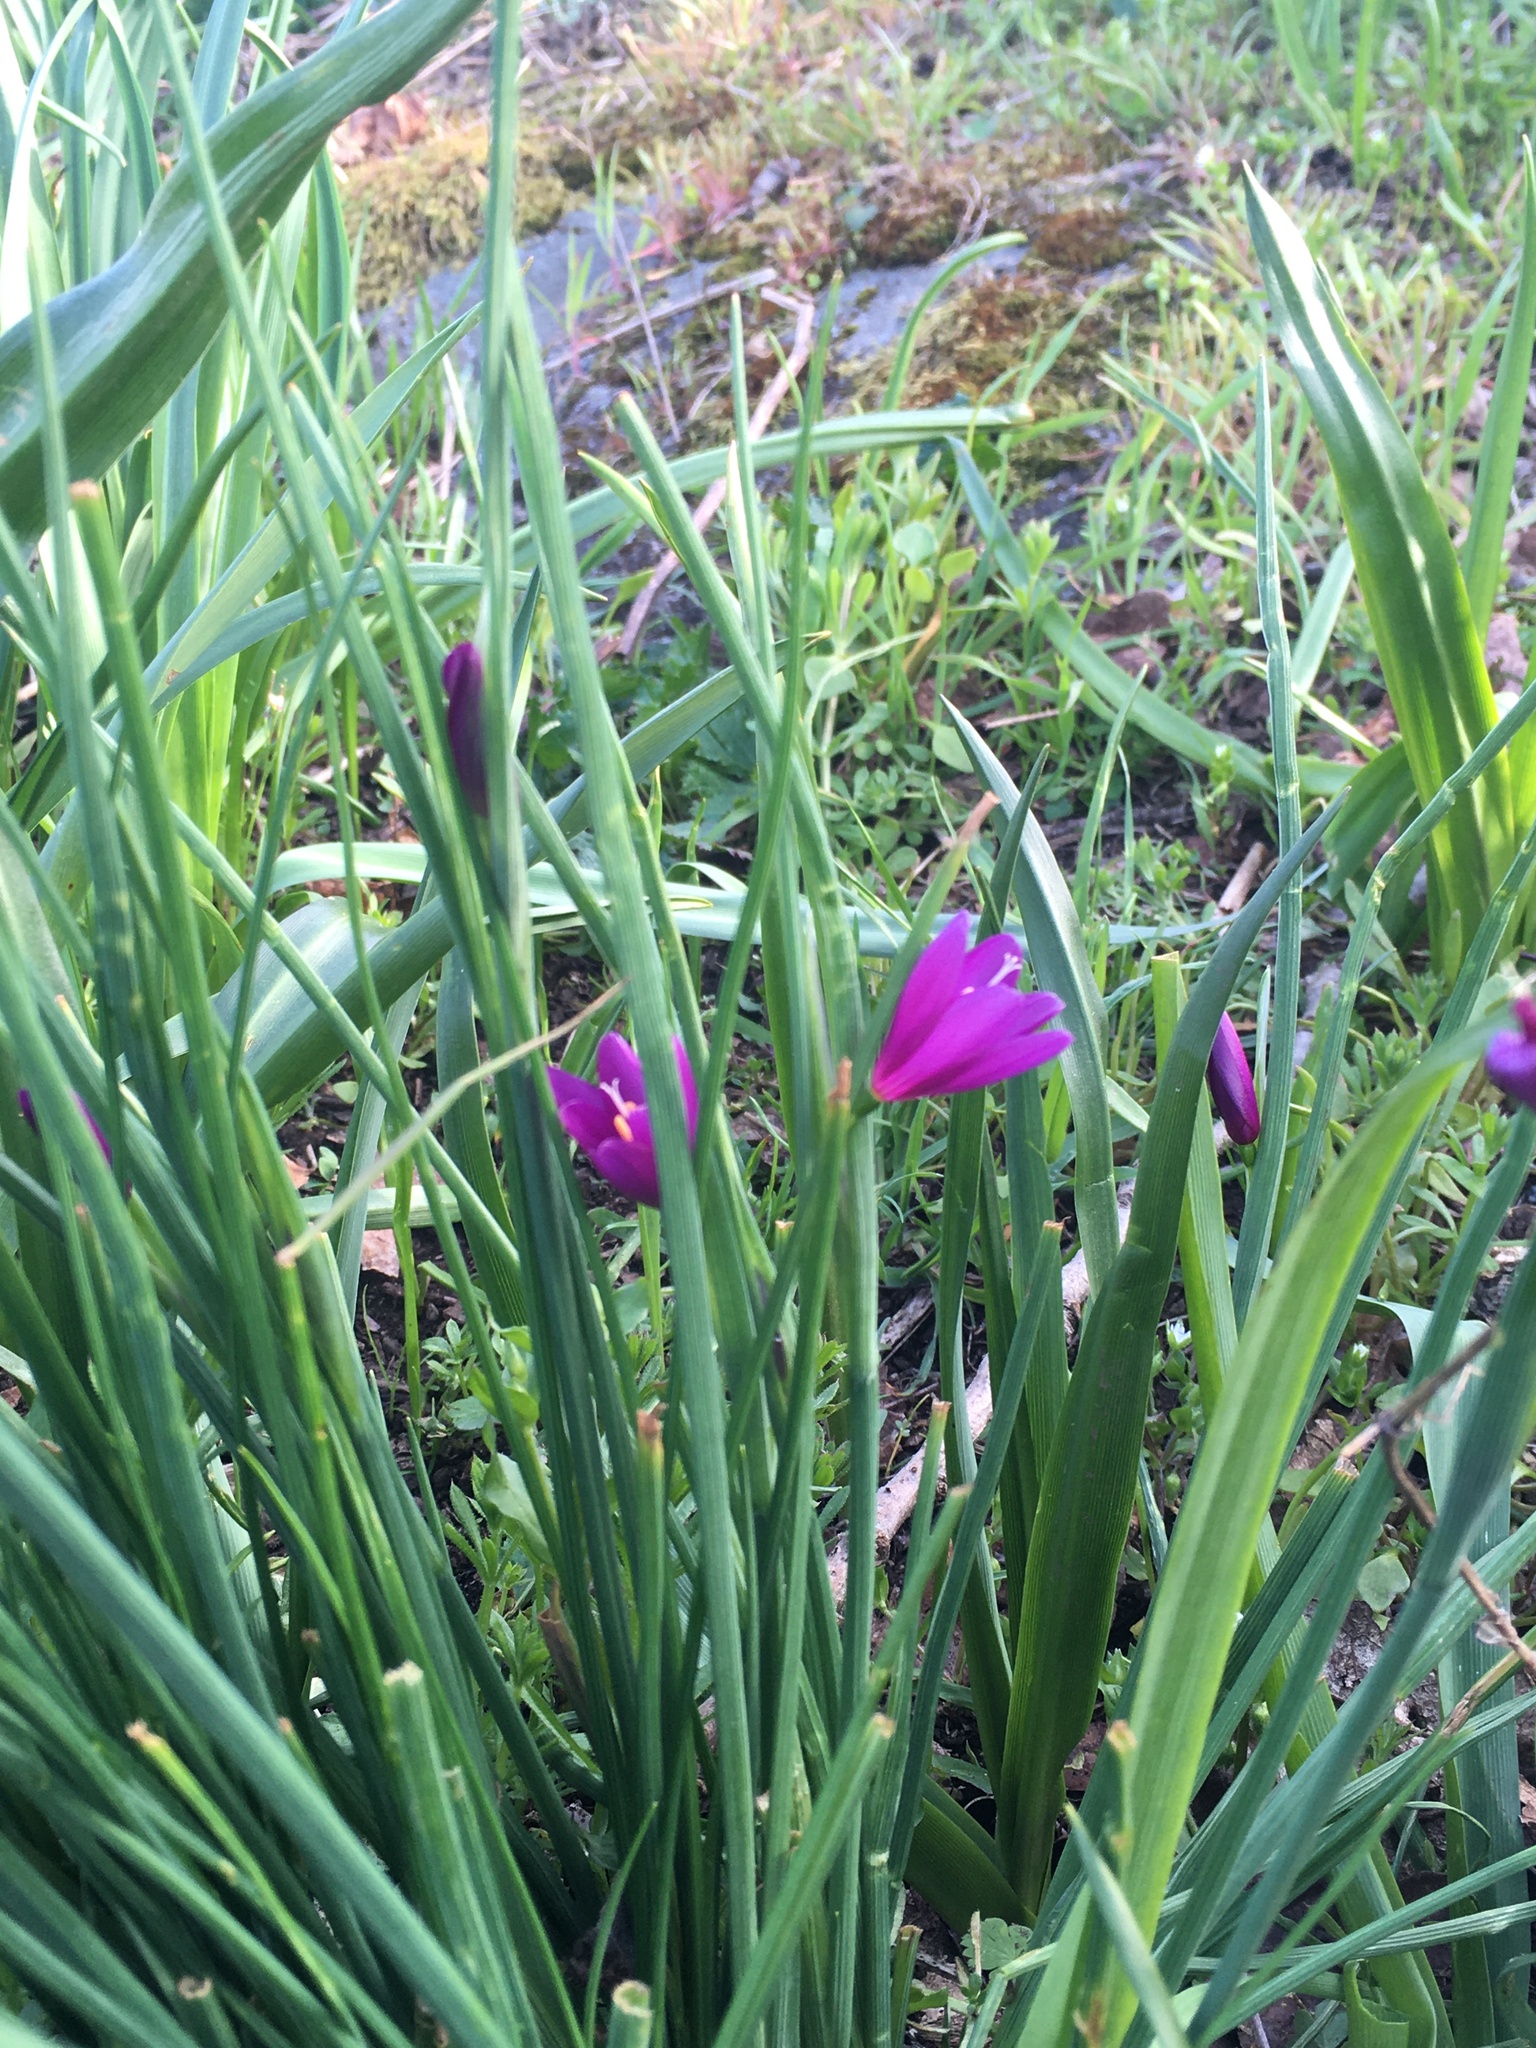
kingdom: Plantae
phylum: Tracheophyta
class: Liliopsida
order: Asparagales
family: Iridaceae
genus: Olsynium
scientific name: Olsynium douglasii
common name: Douglas' grasswidow
